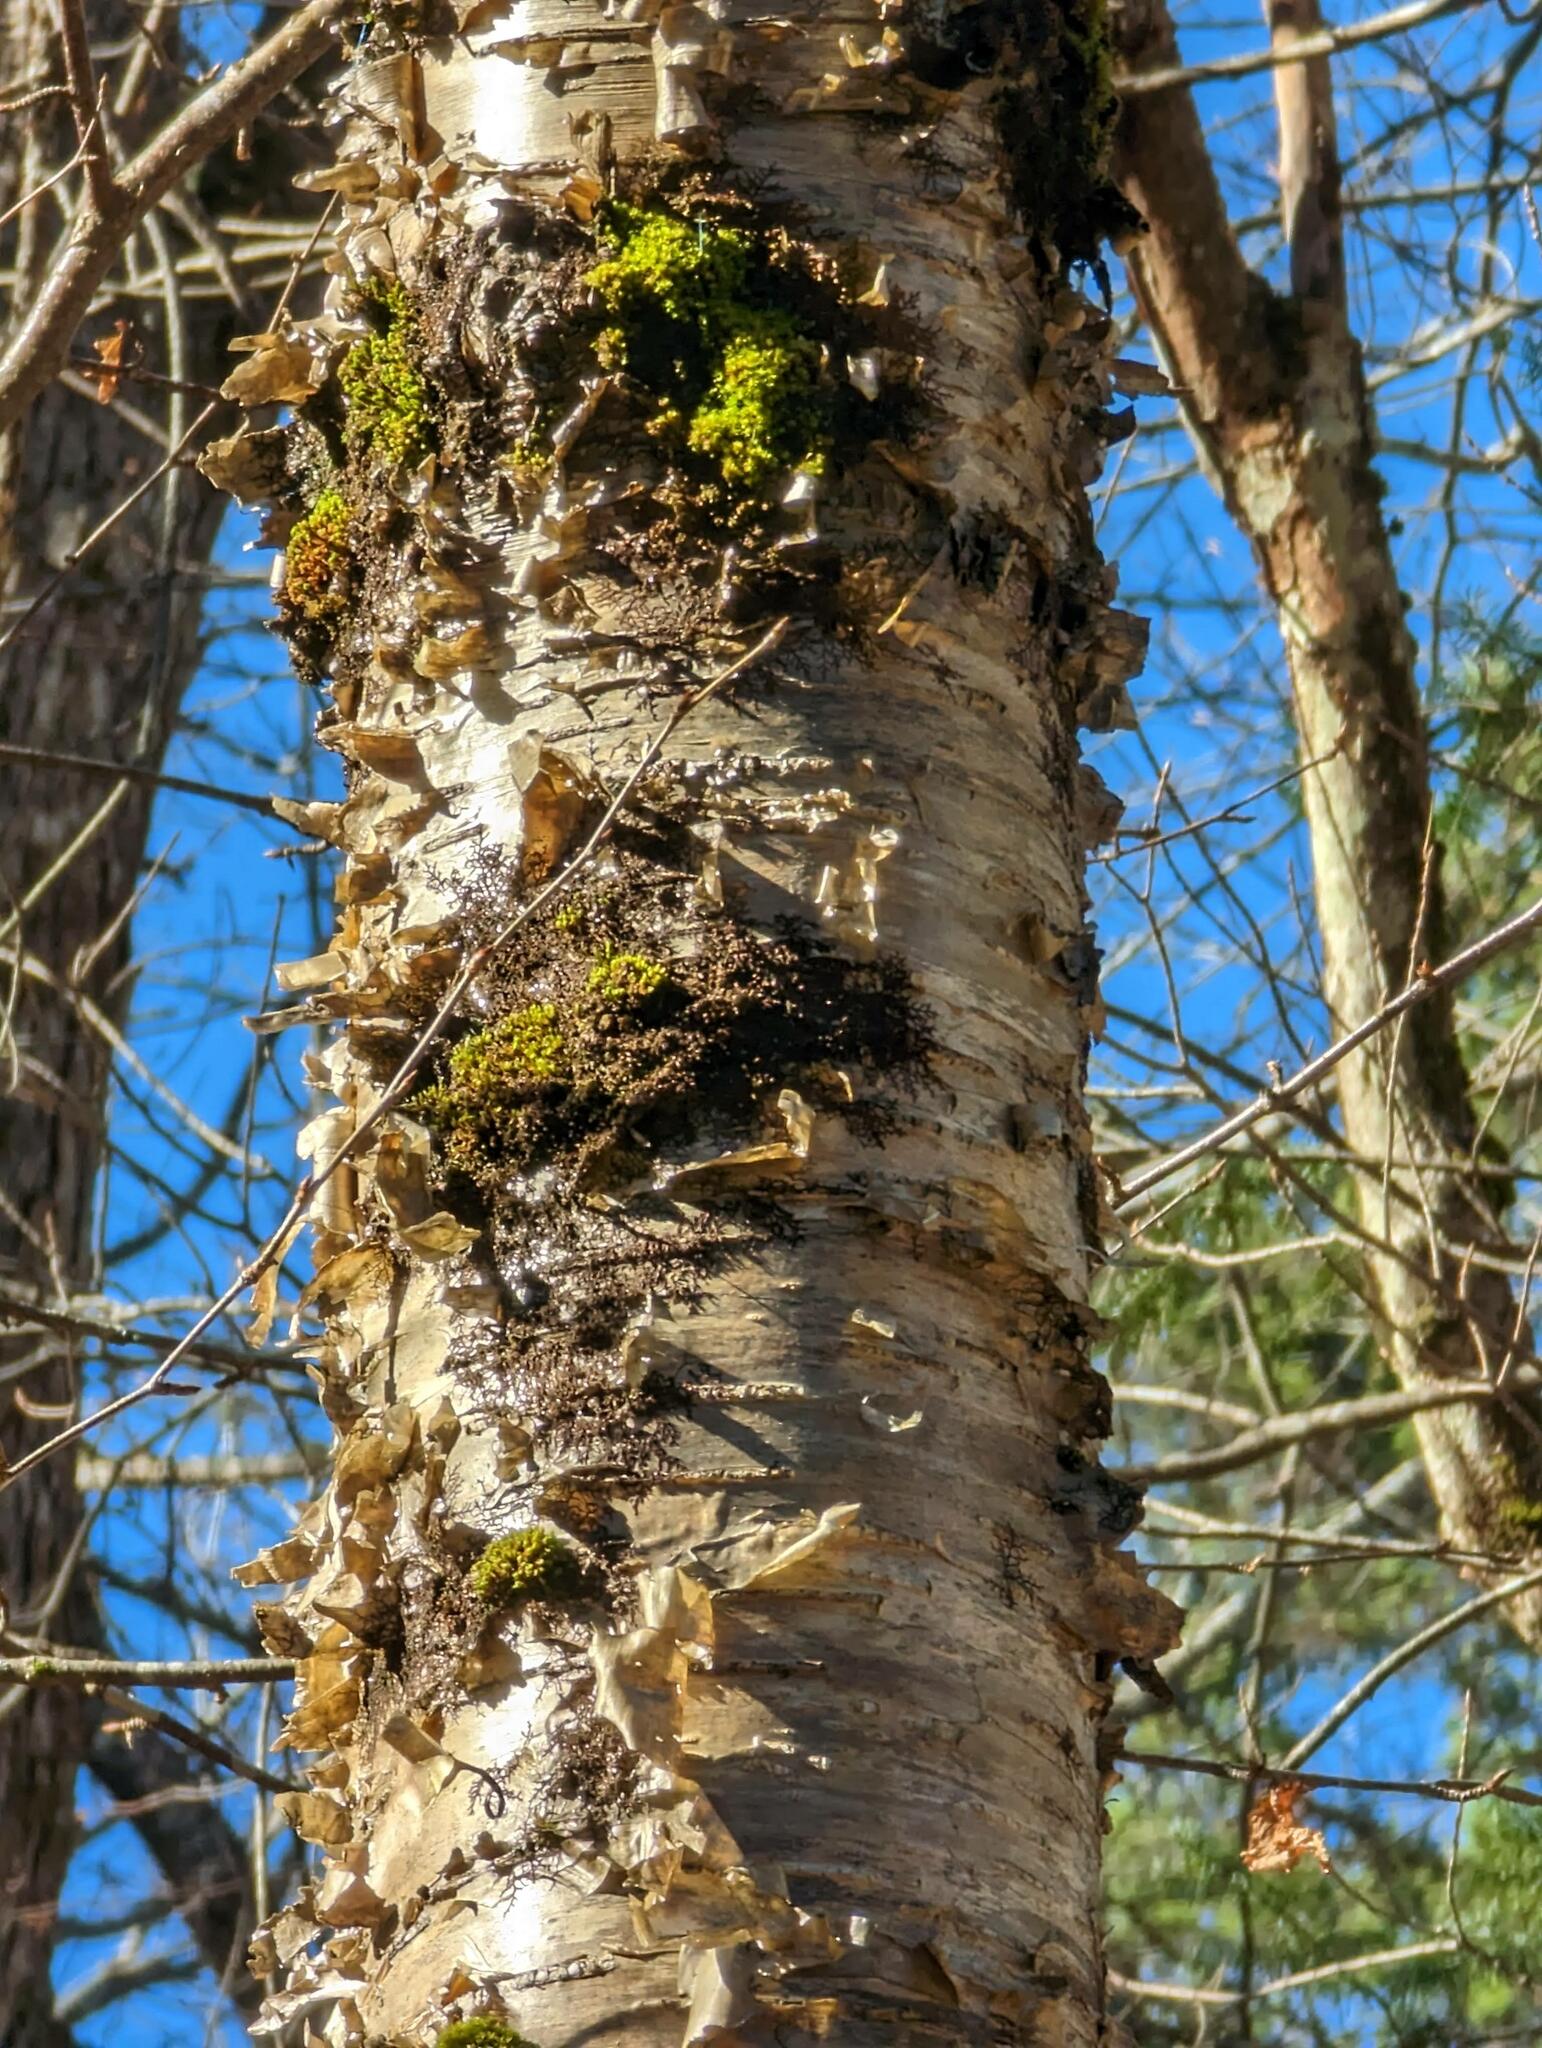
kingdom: Plantae
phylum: Tracheophyta
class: Magnoliopsida
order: Fagales
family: Betulaceae
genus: Betula
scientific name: Betula alleghaniensis
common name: Yellow birch
